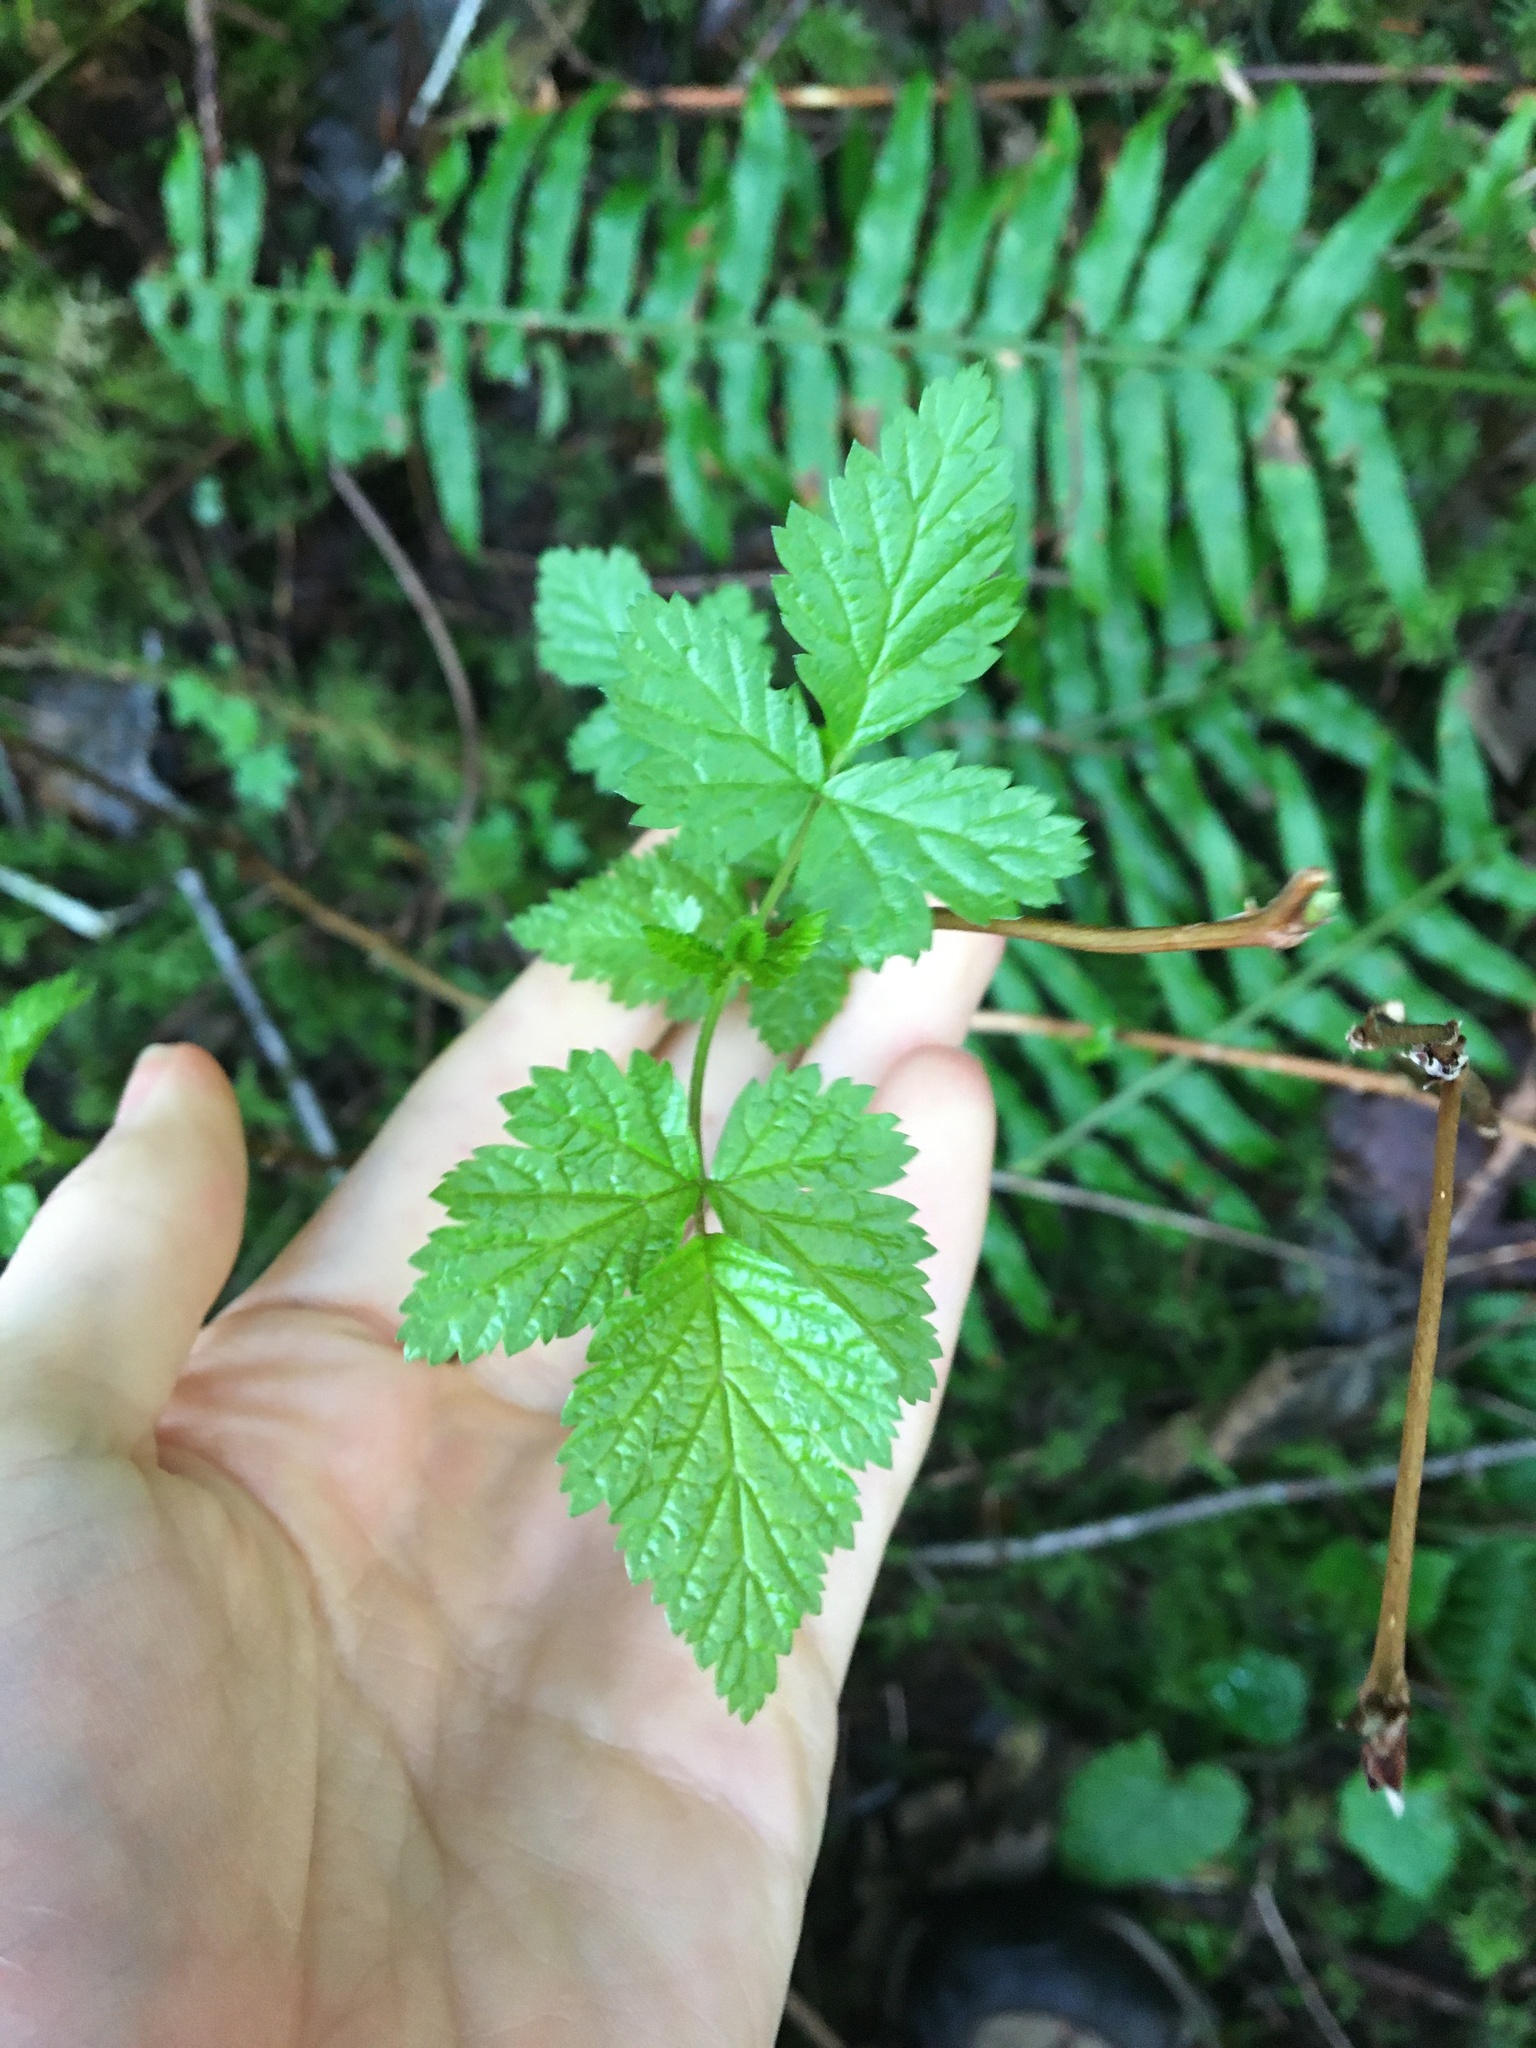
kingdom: Plantae
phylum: Tracheophyta
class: Magnoliopsida
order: Rosales
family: Rosaceae
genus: Rubus
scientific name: Rubus spectabilis
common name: Salmonberry
